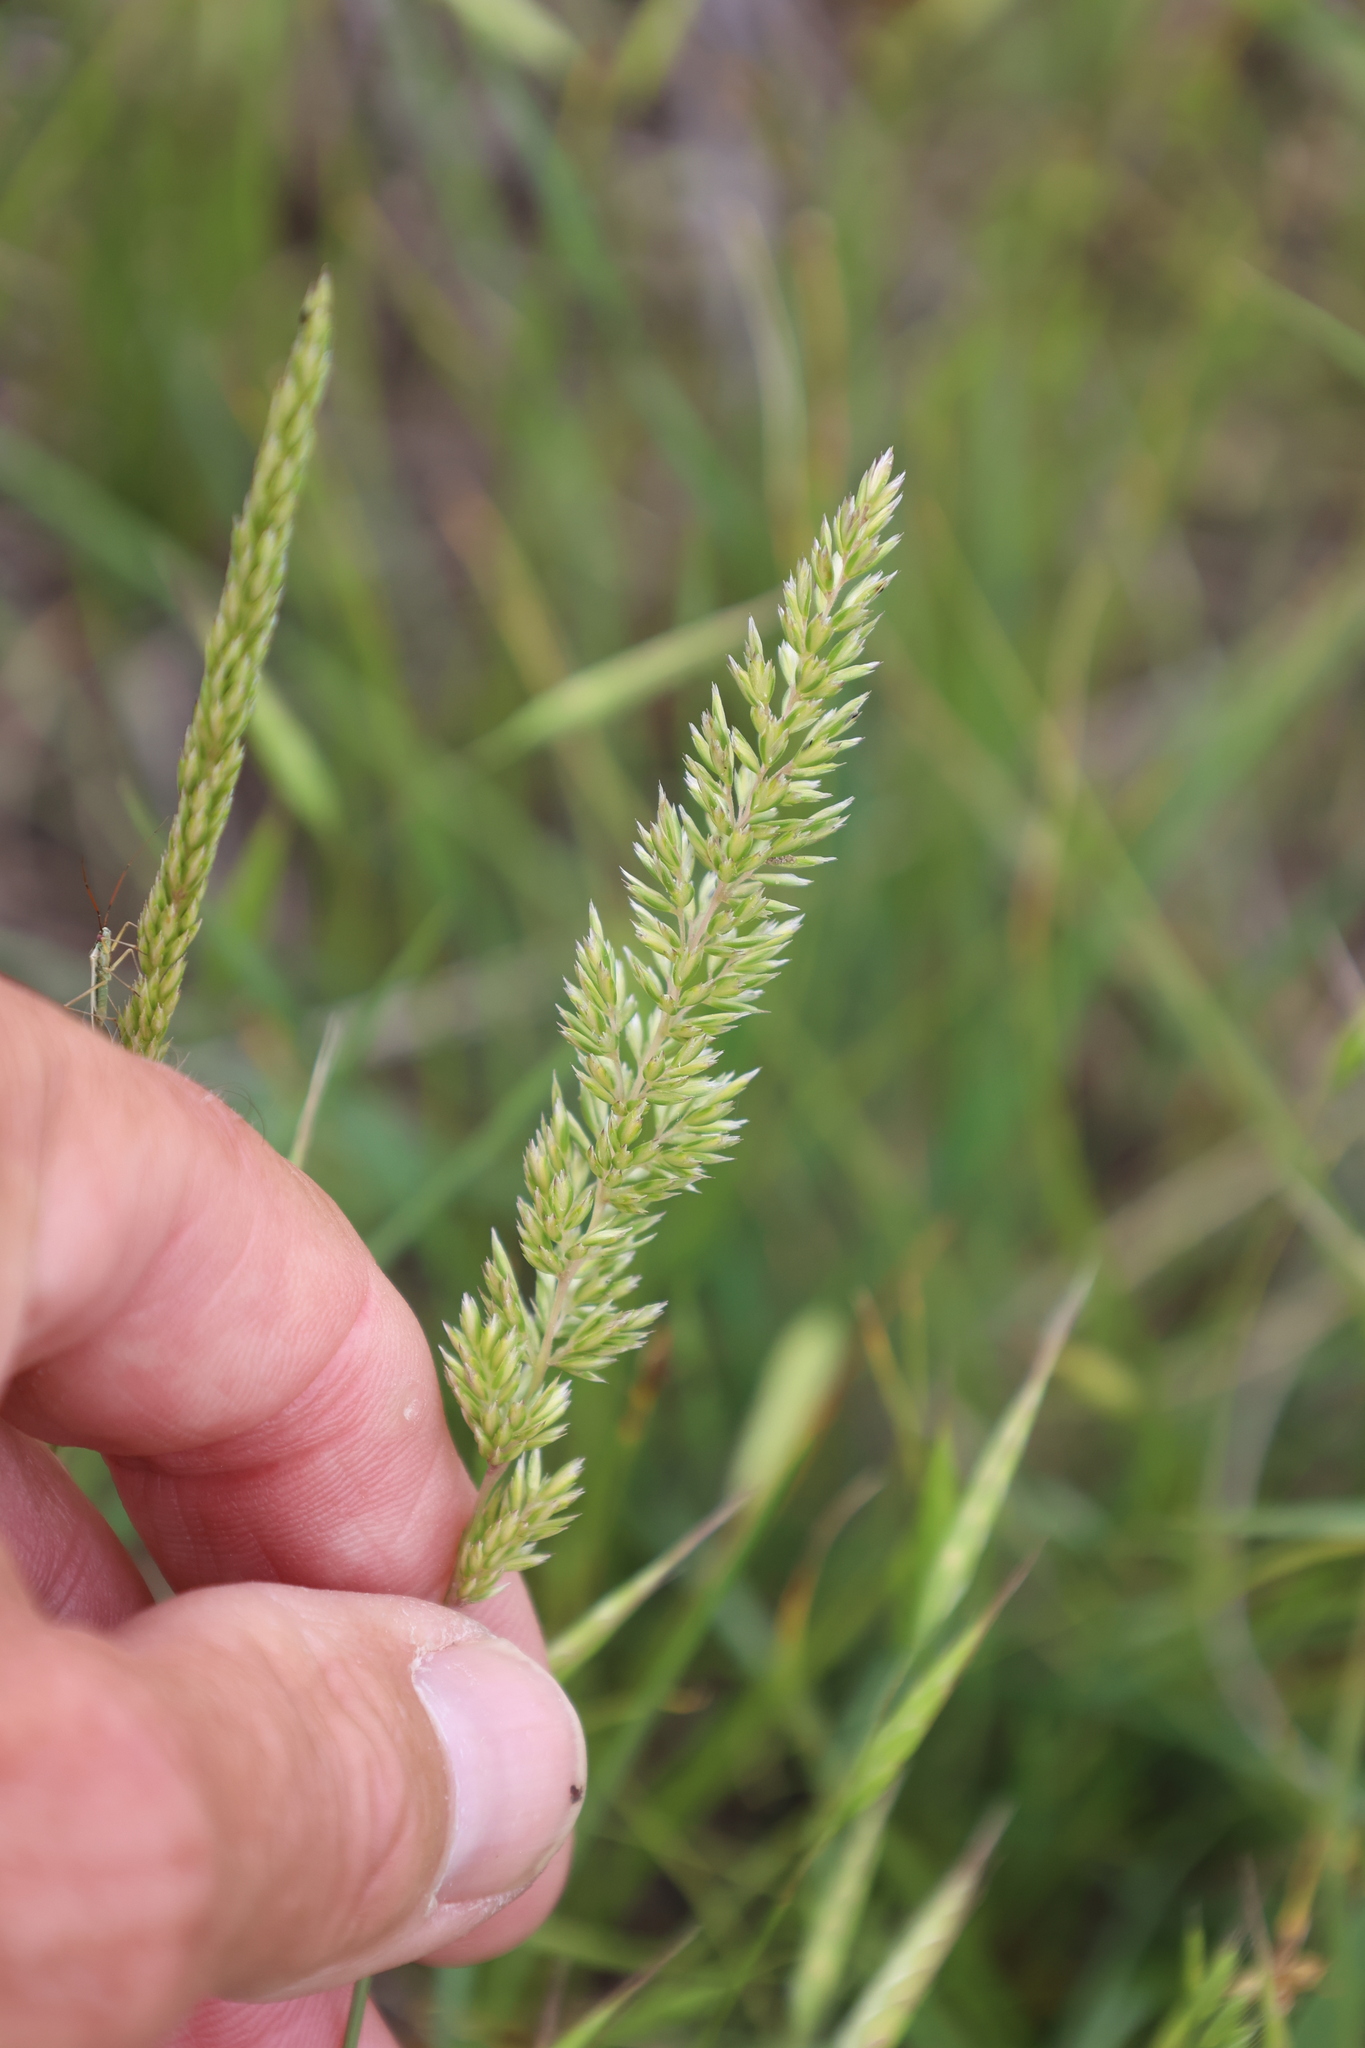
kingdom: Plantae
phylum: Tracheophyta
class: Liliopsida
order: Poales
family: Poaceae
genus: Koeleria
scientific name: Koeleria macrantha
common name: Crested hair-grass
